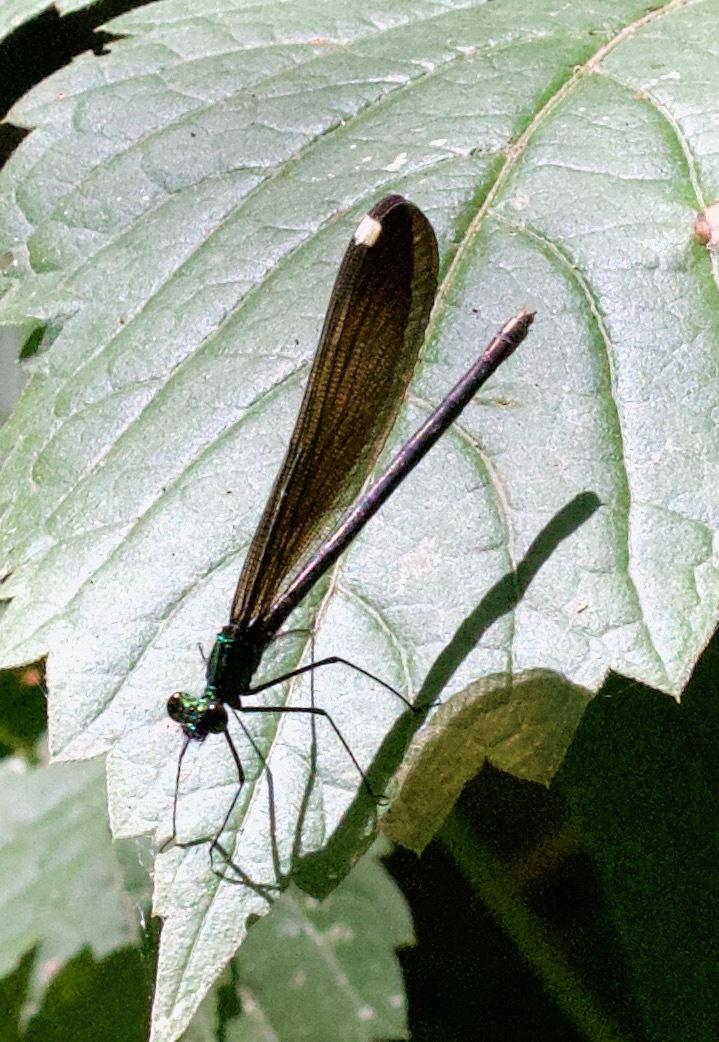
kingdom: Animalia
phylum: Arthropoda
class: Insecta
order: Odonata
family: Calopterygidae
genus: Calopteryx
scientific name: Calopteryx maculata
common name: Ebony jewelwing
